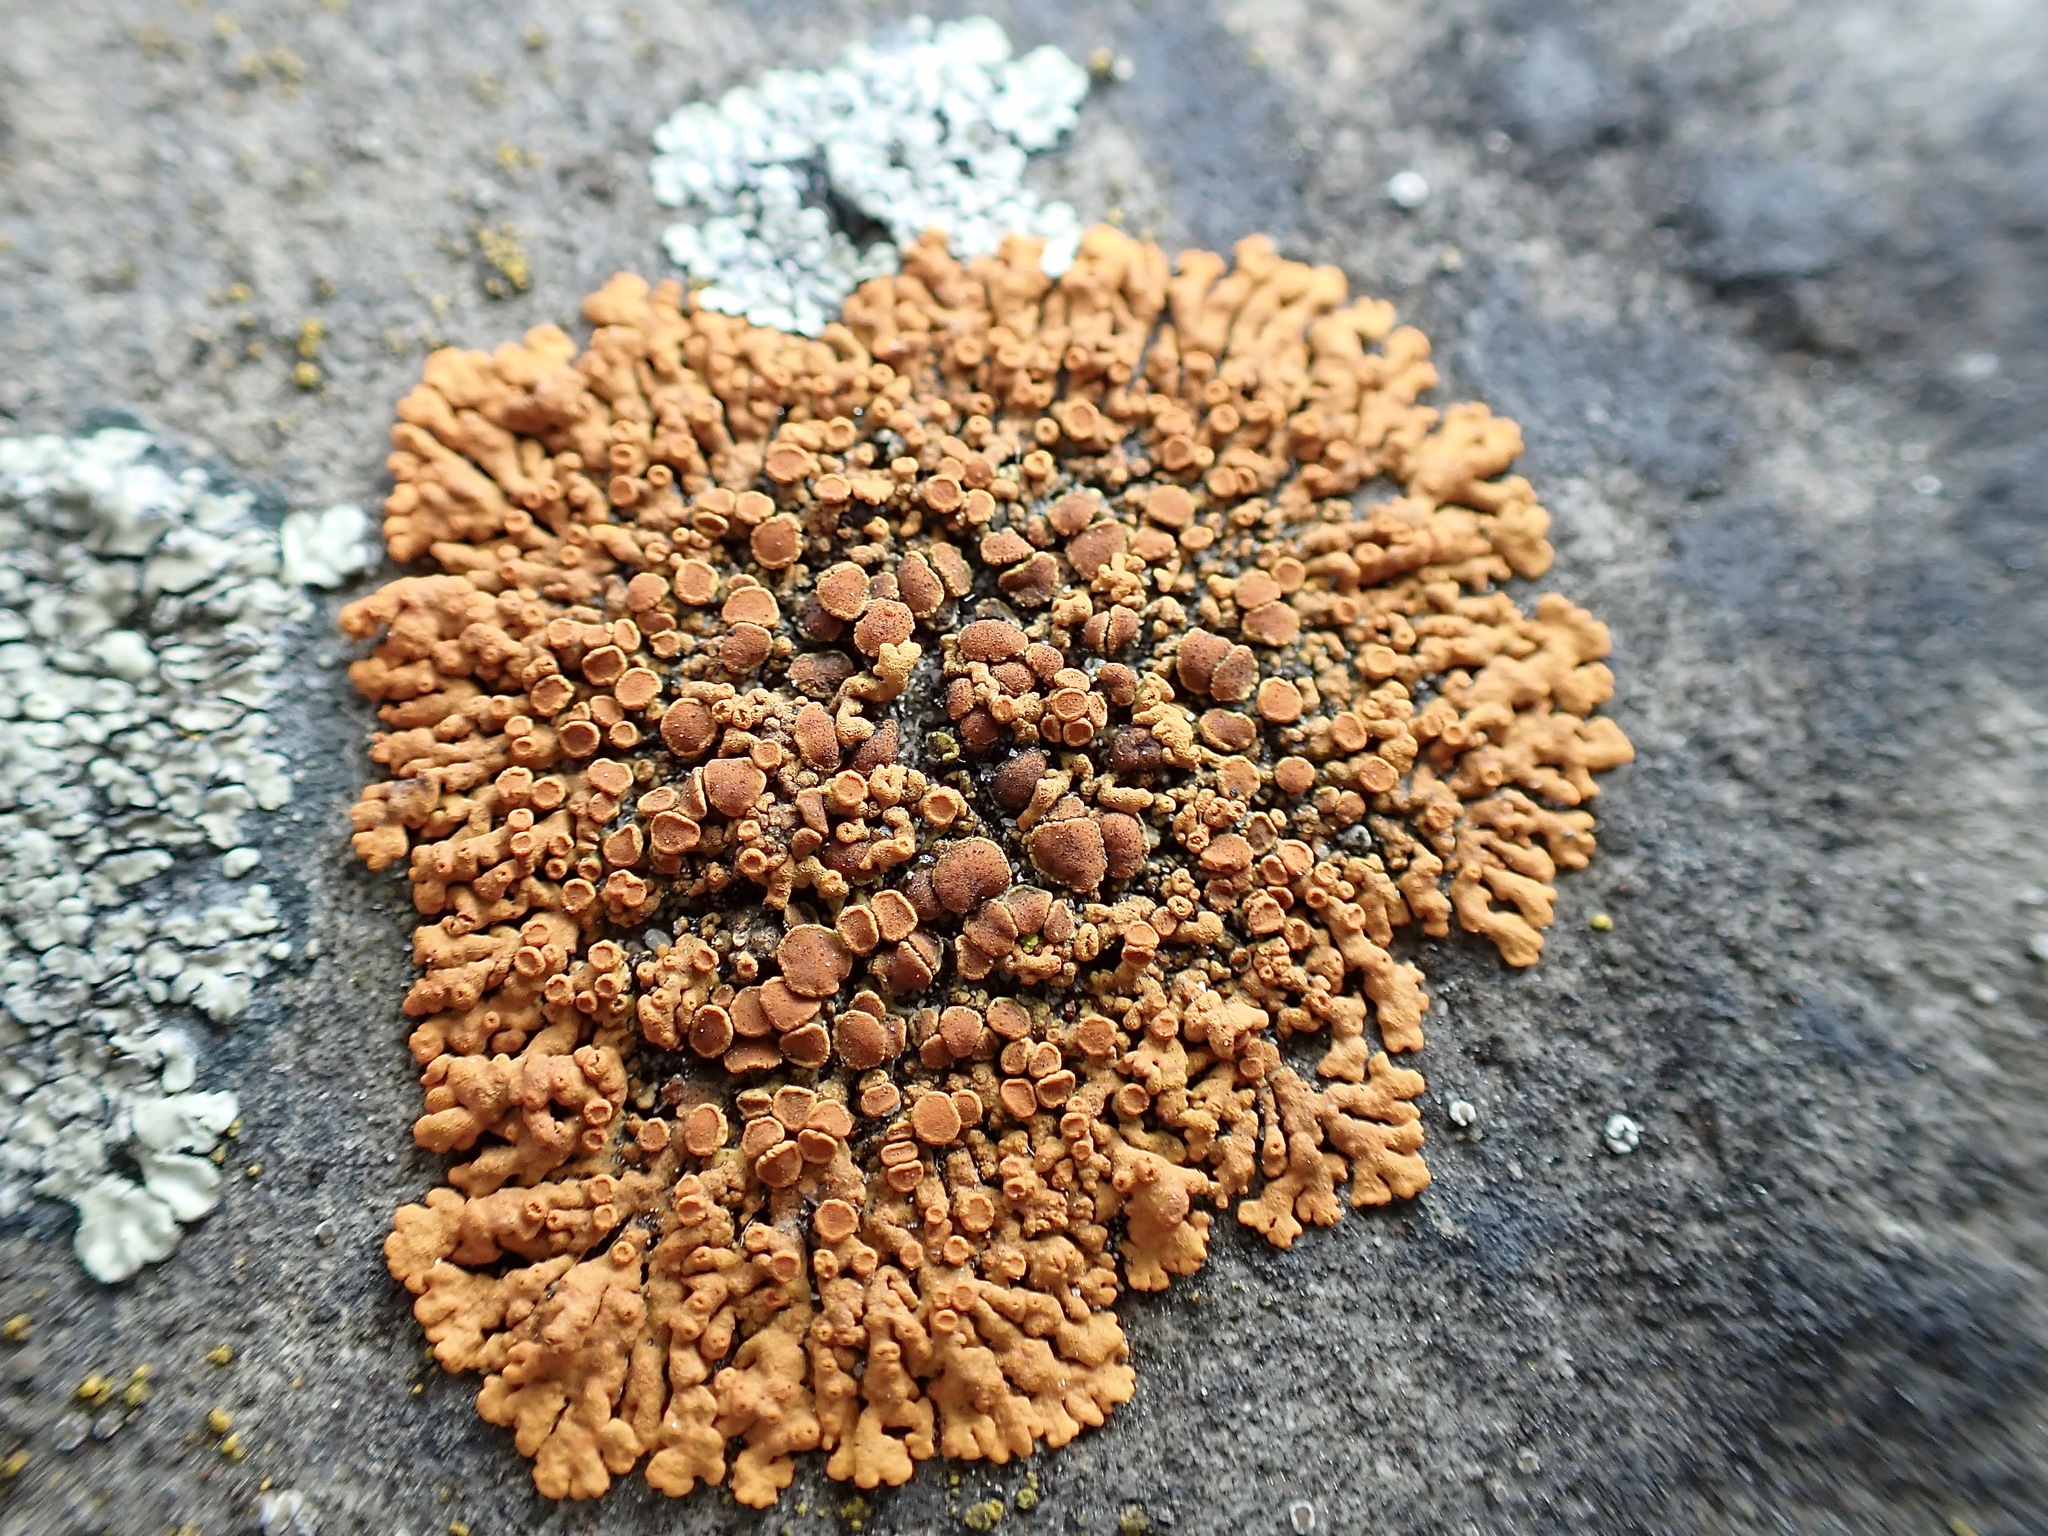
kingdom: Fungi
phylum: Ascomycota
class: Lecanoromycetes
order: Teloschistales
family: Teloschistaceae
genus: Xanthoria
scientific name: Xanthoria elegans
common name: Elegant sunburst lichen
